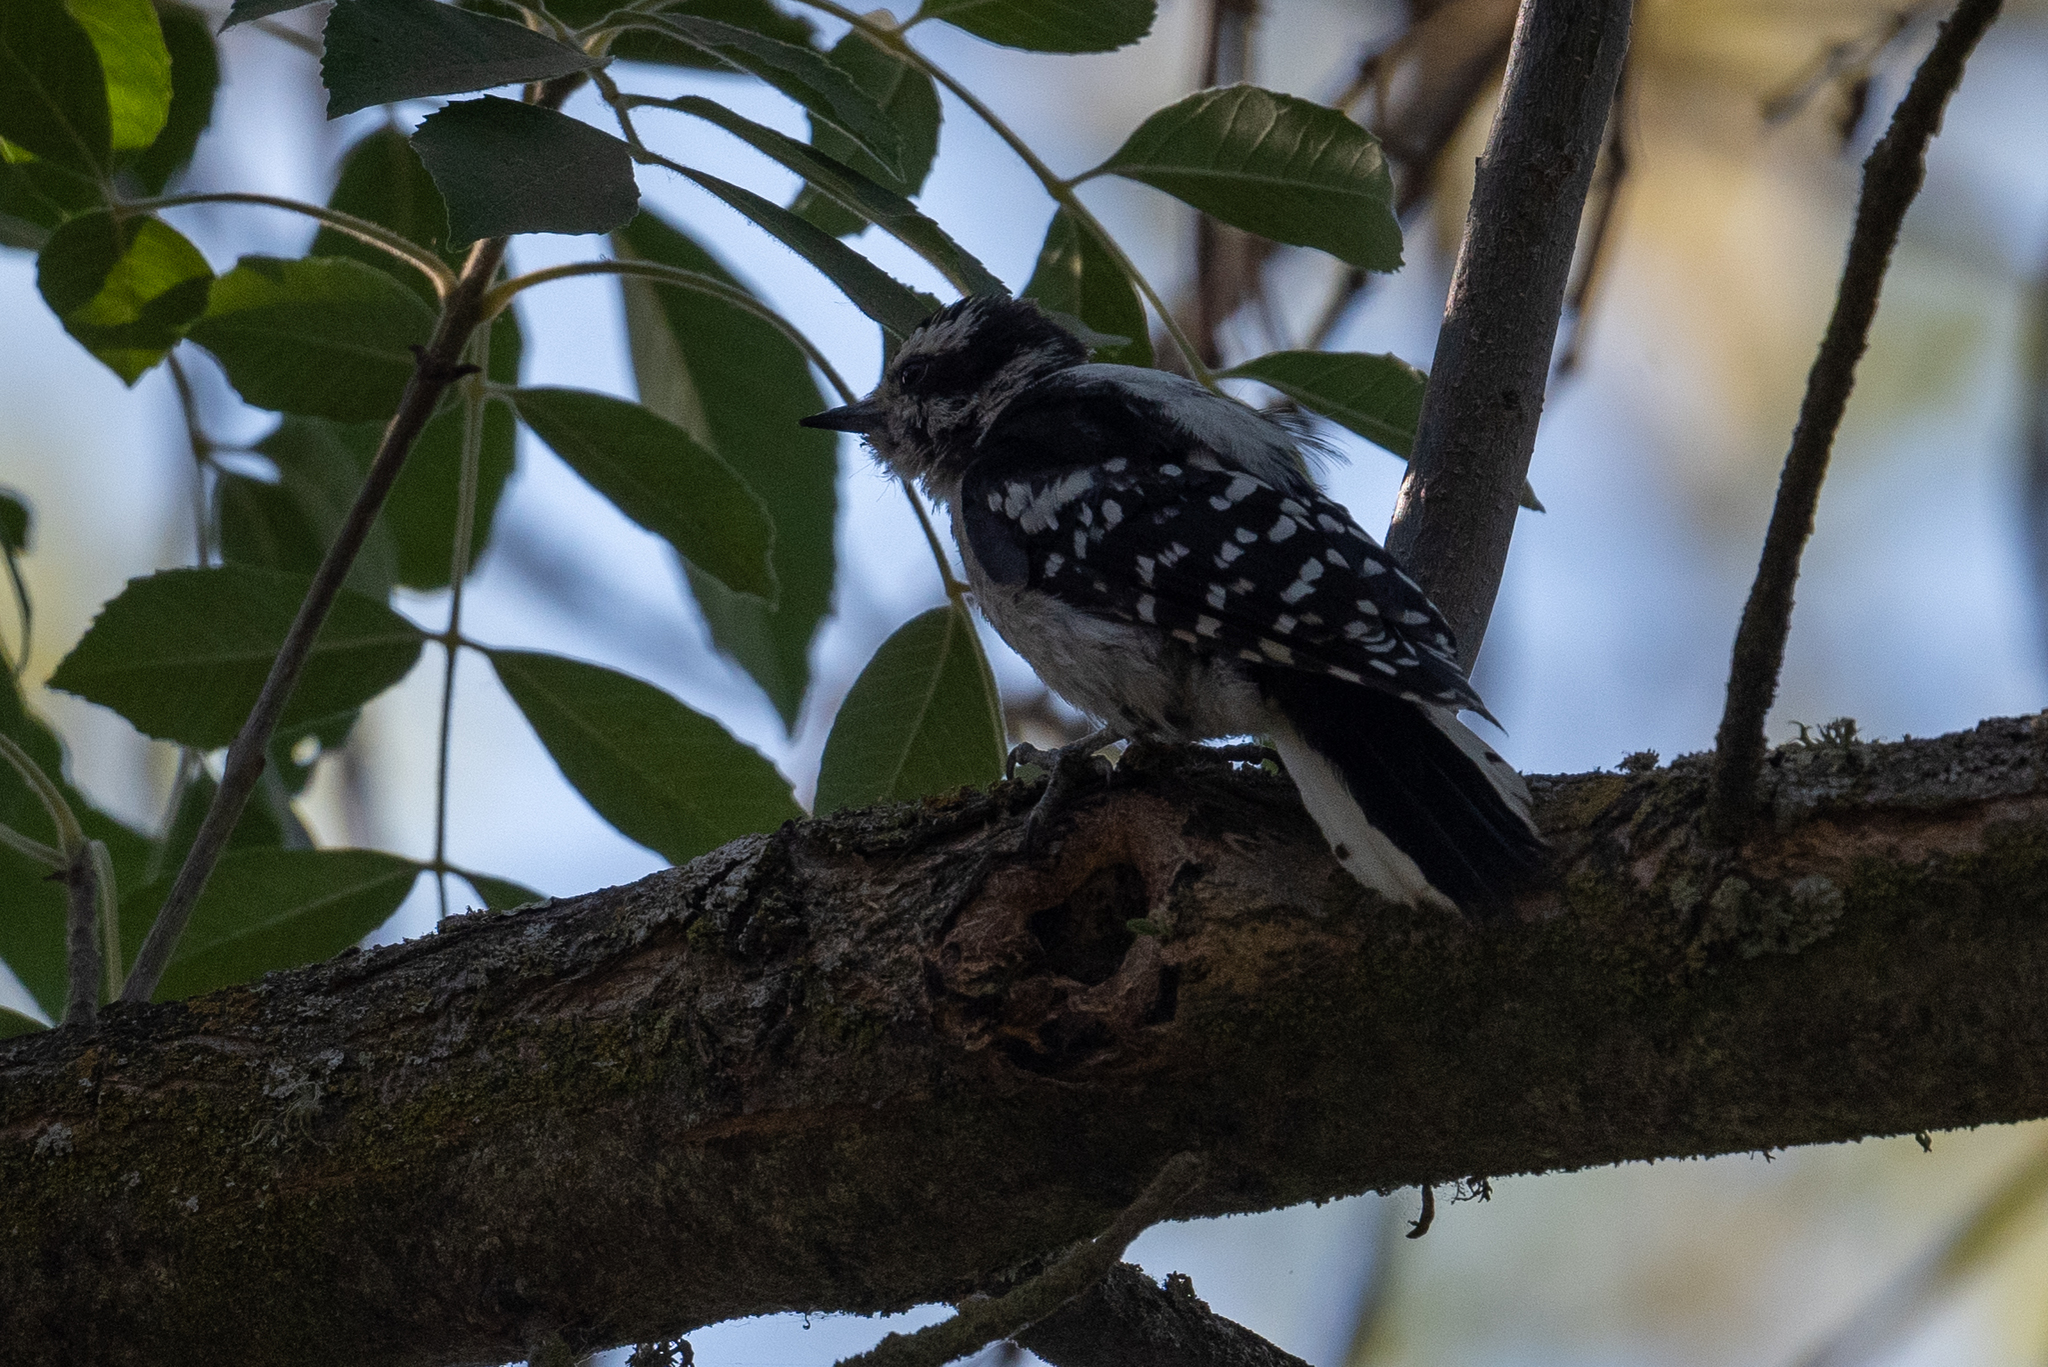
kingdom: Animalia
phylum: Chordata
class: Aves
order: Piciformes
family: Picidae
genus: Dryobates
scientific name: Dryobates pubescens
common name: Downy woodpecker
